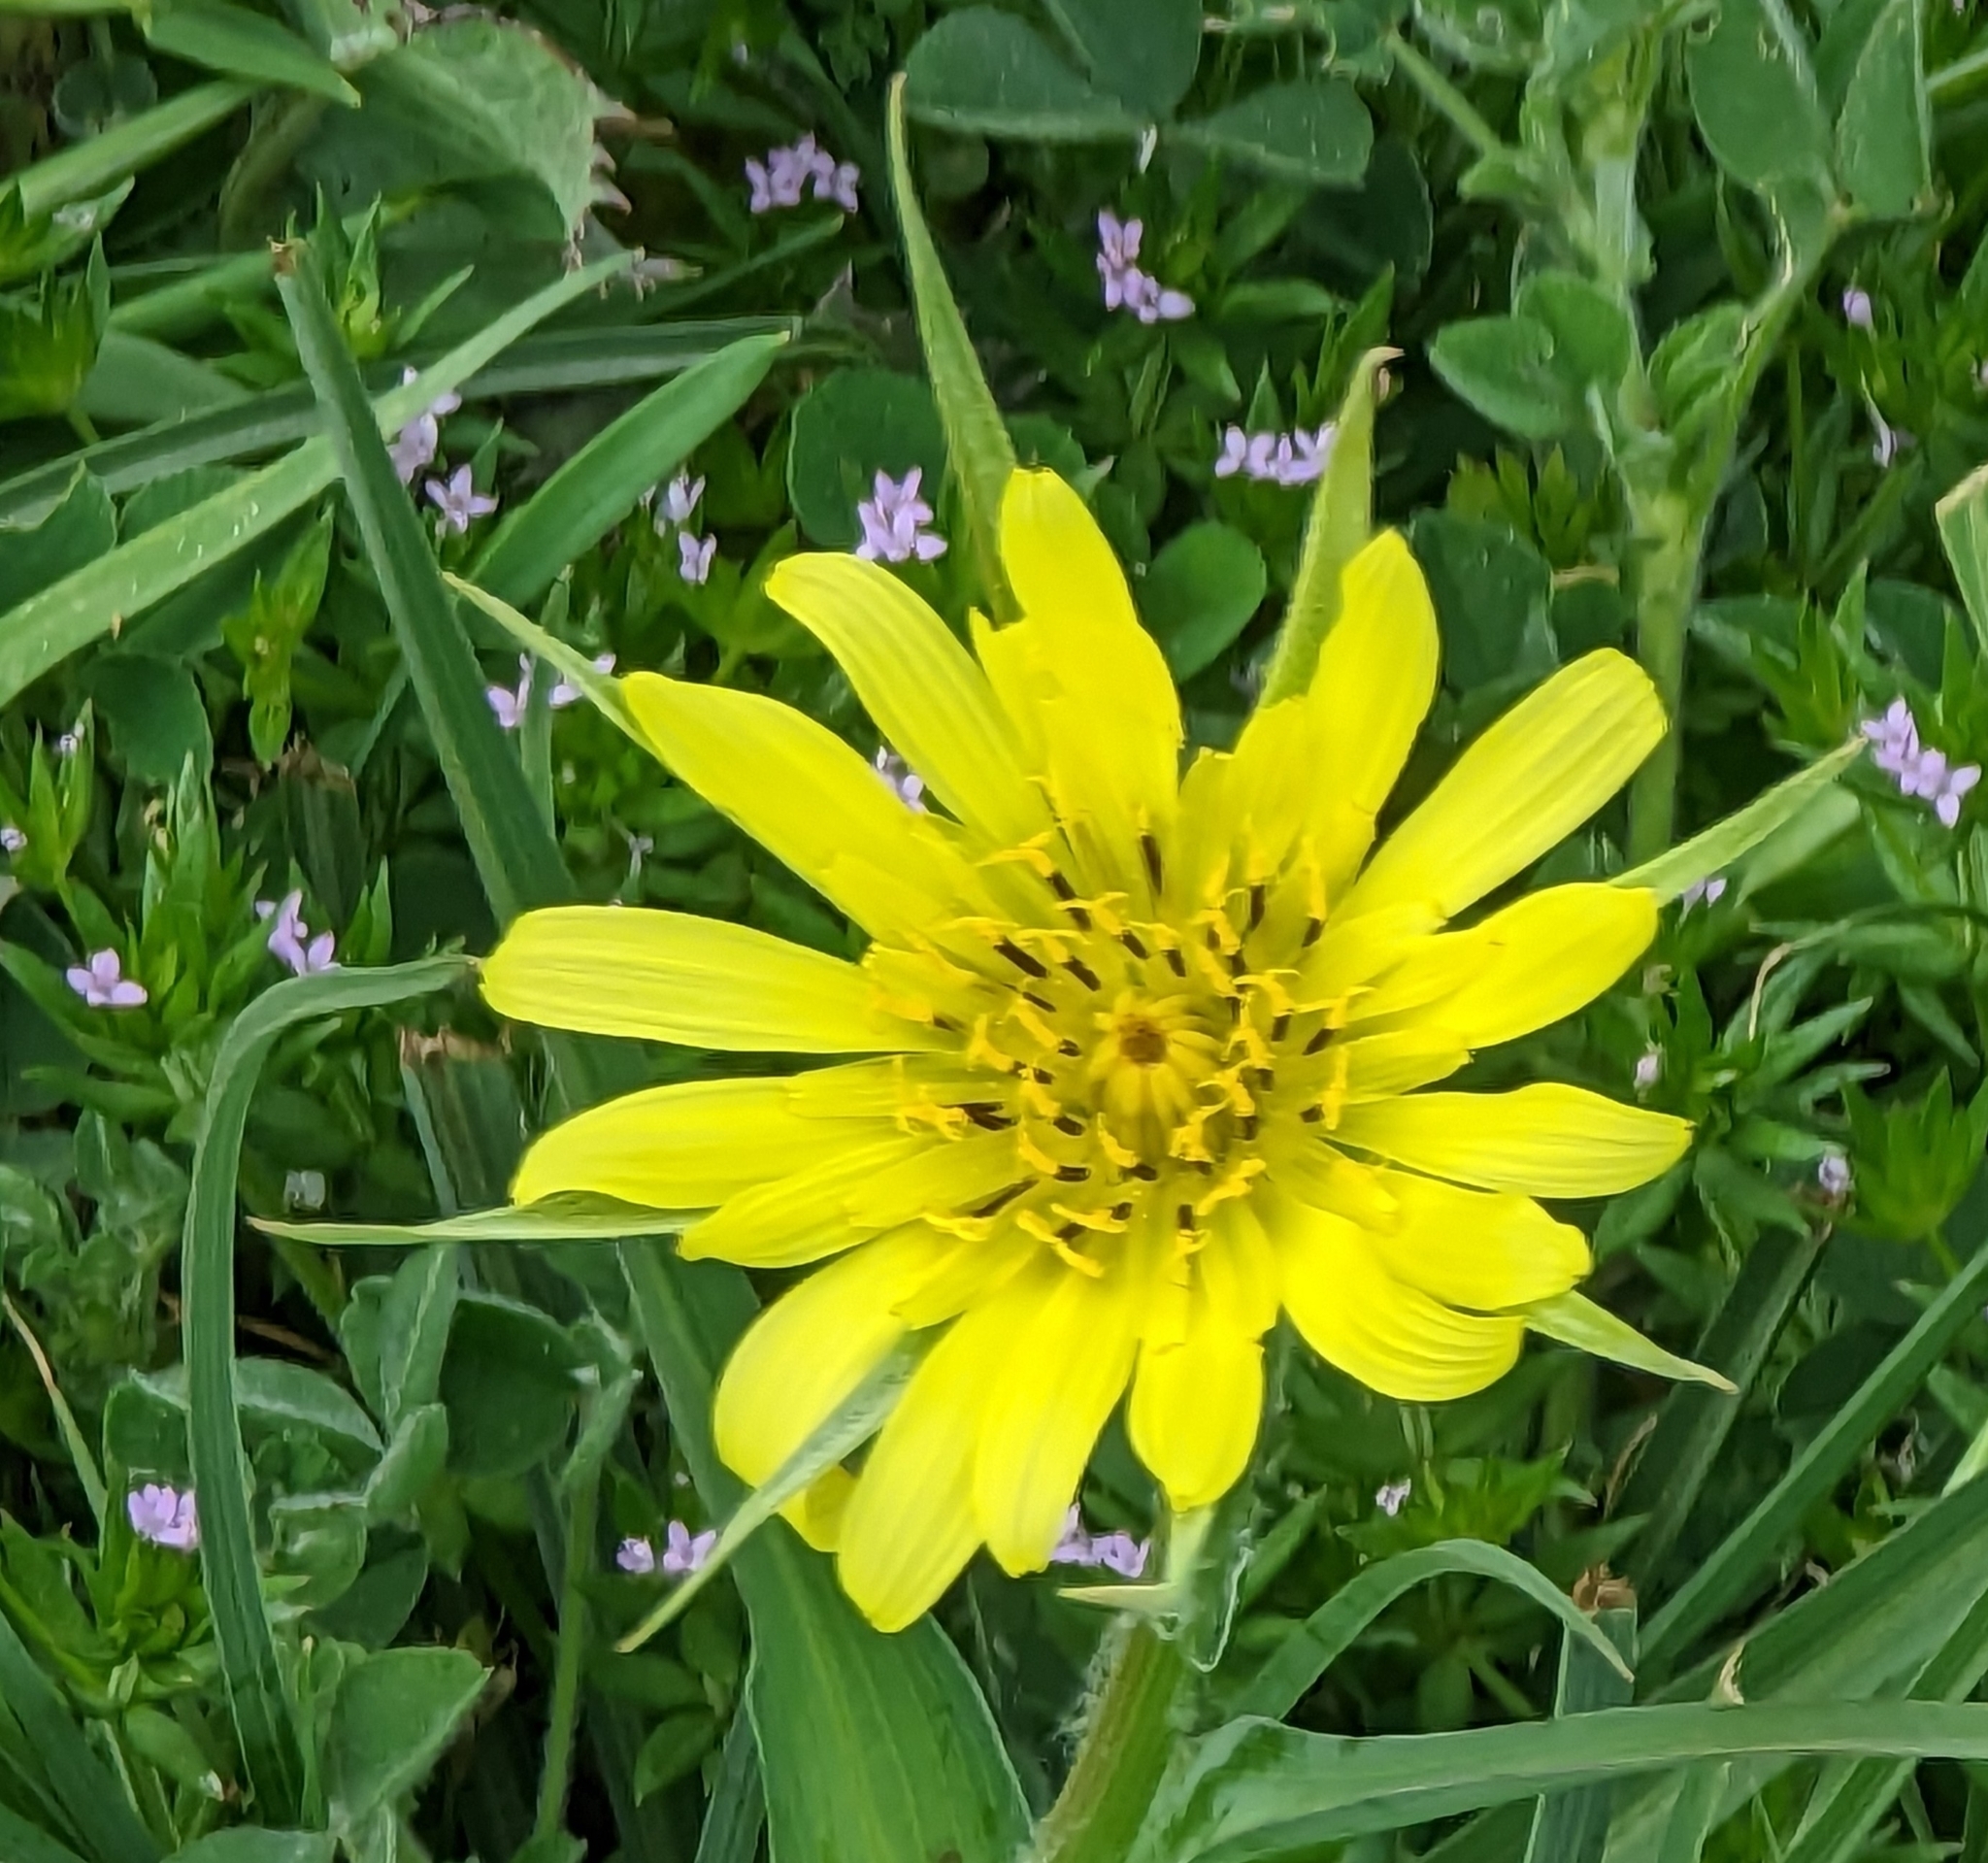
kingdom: Plantae
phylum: Tracheophyta
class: Magnoliopsida
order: Asterales
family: Asteraceae
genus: Tragopogon
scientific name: Tragopogon dubius
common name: Yellow salsify
